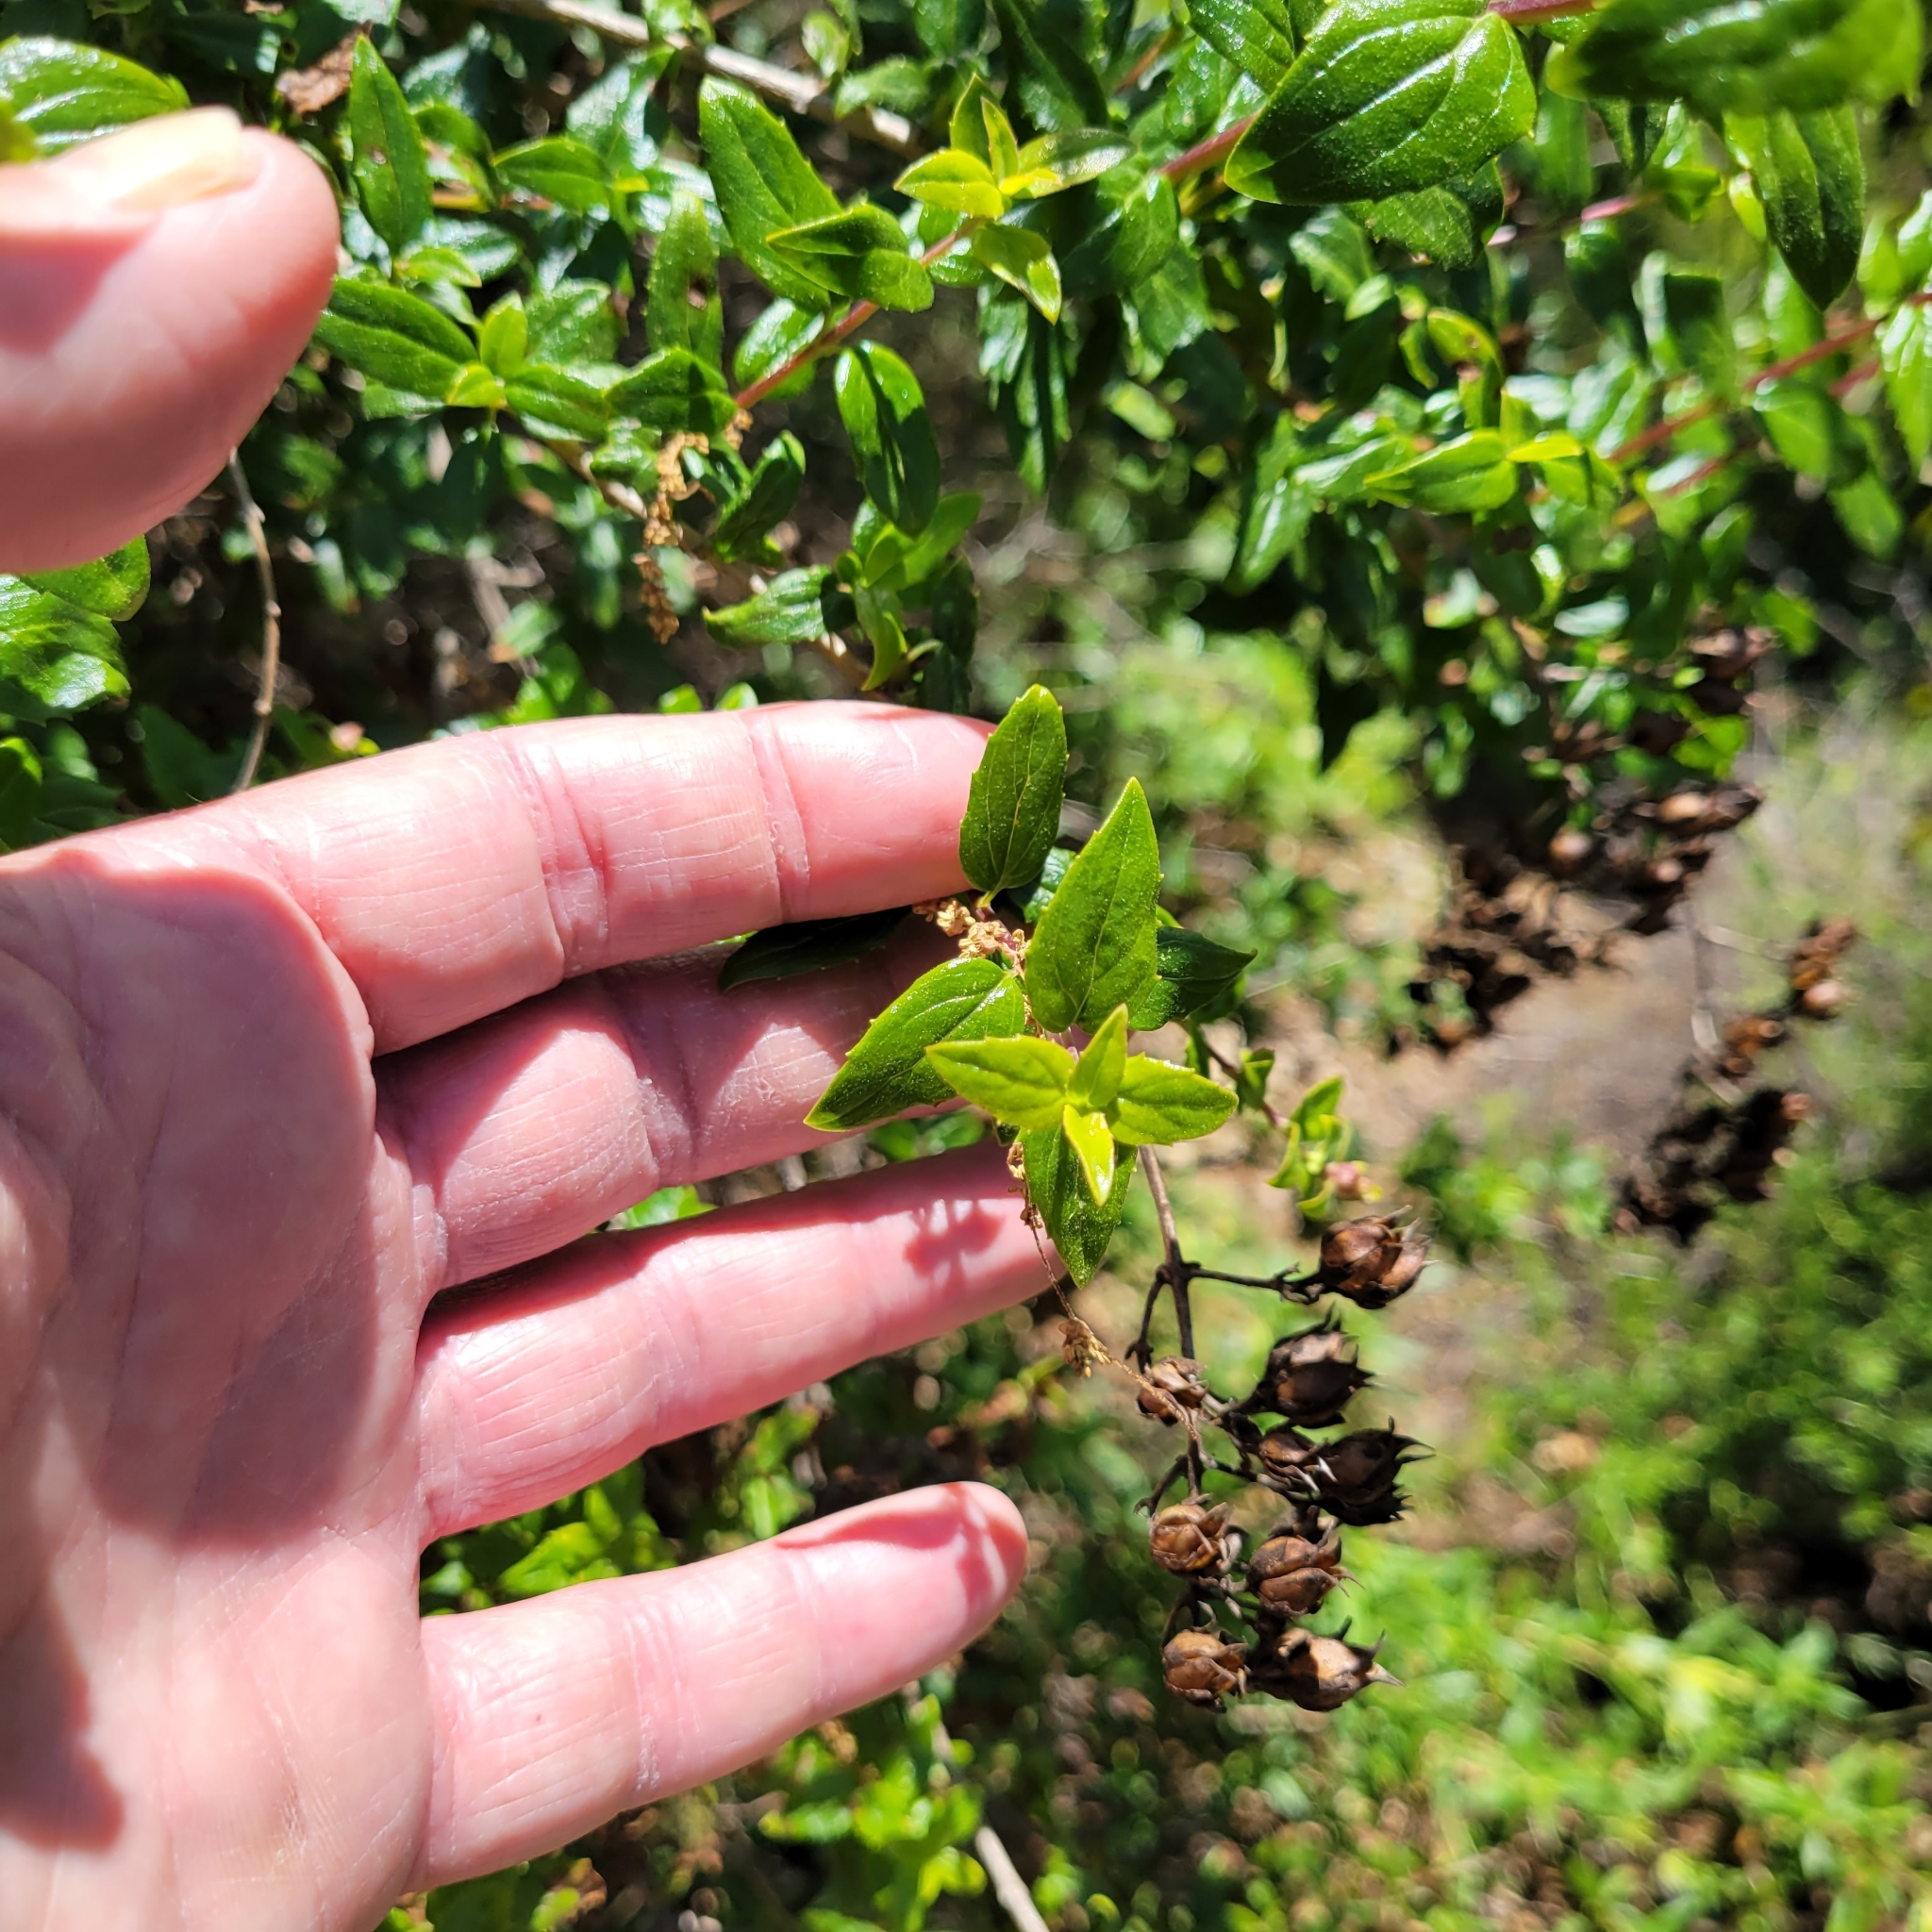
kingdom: Plantae
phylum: Tracheophyta
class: Magnoliopsida
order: Lamiales
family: Plantaginaceae
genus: Keckiella
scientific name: Keckiella cordifolia
